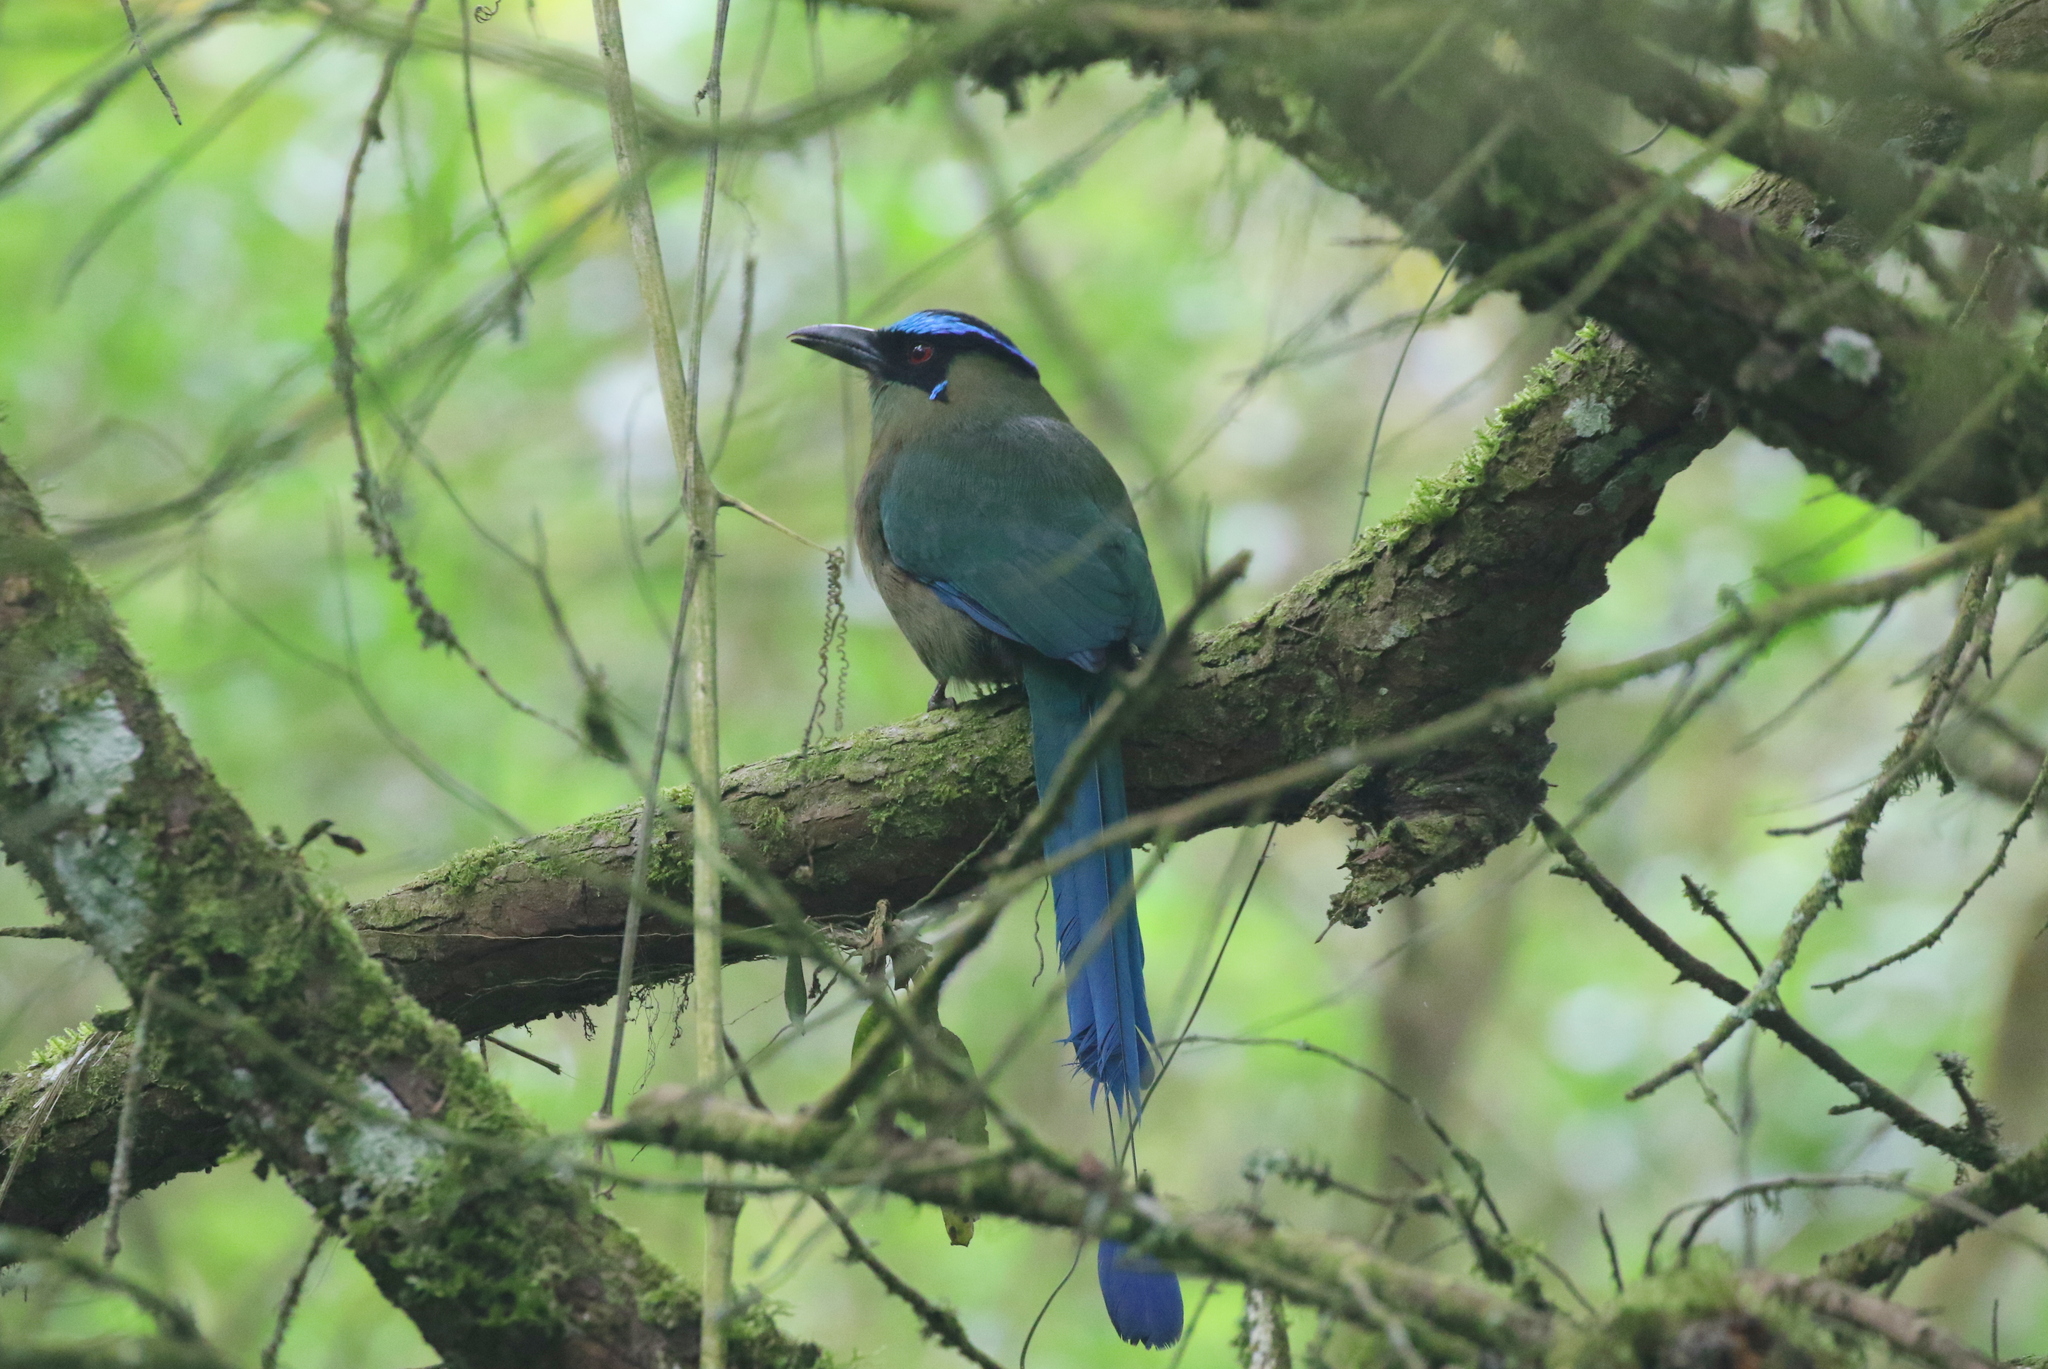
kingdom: Animalia
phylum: Chordata
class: Aves
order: Coraciiformes
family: Momotidae
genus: Momotus
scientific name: Momotus aequatorialis
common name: Andean motmot
